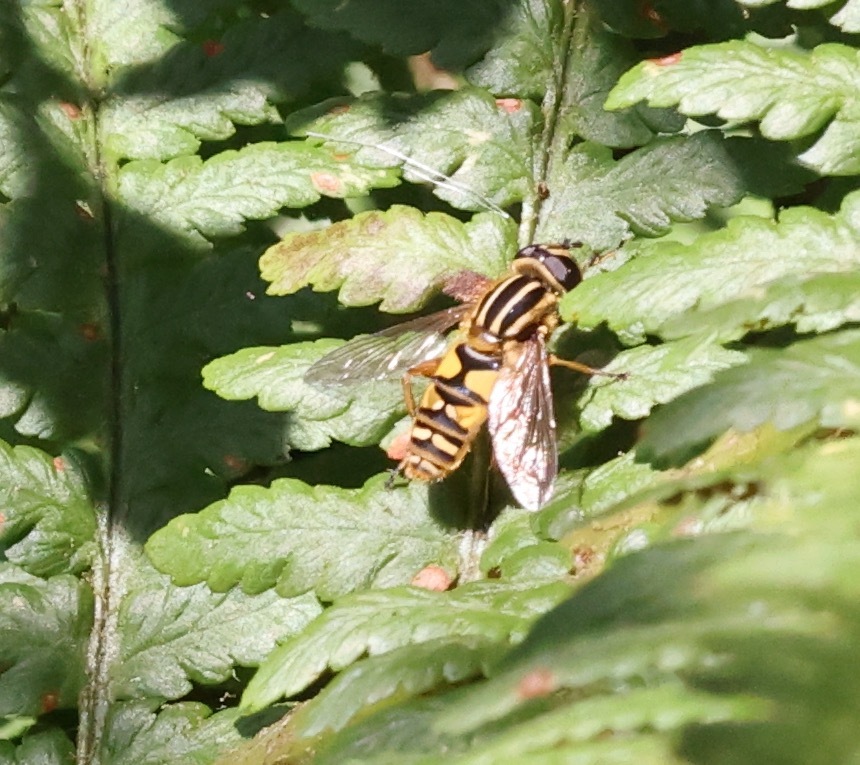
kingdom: Animalia
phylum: Arthropoda
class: Insecta
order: Diptera
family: Syrphidae
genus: Helophilus
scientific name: Helophilus pendulus
